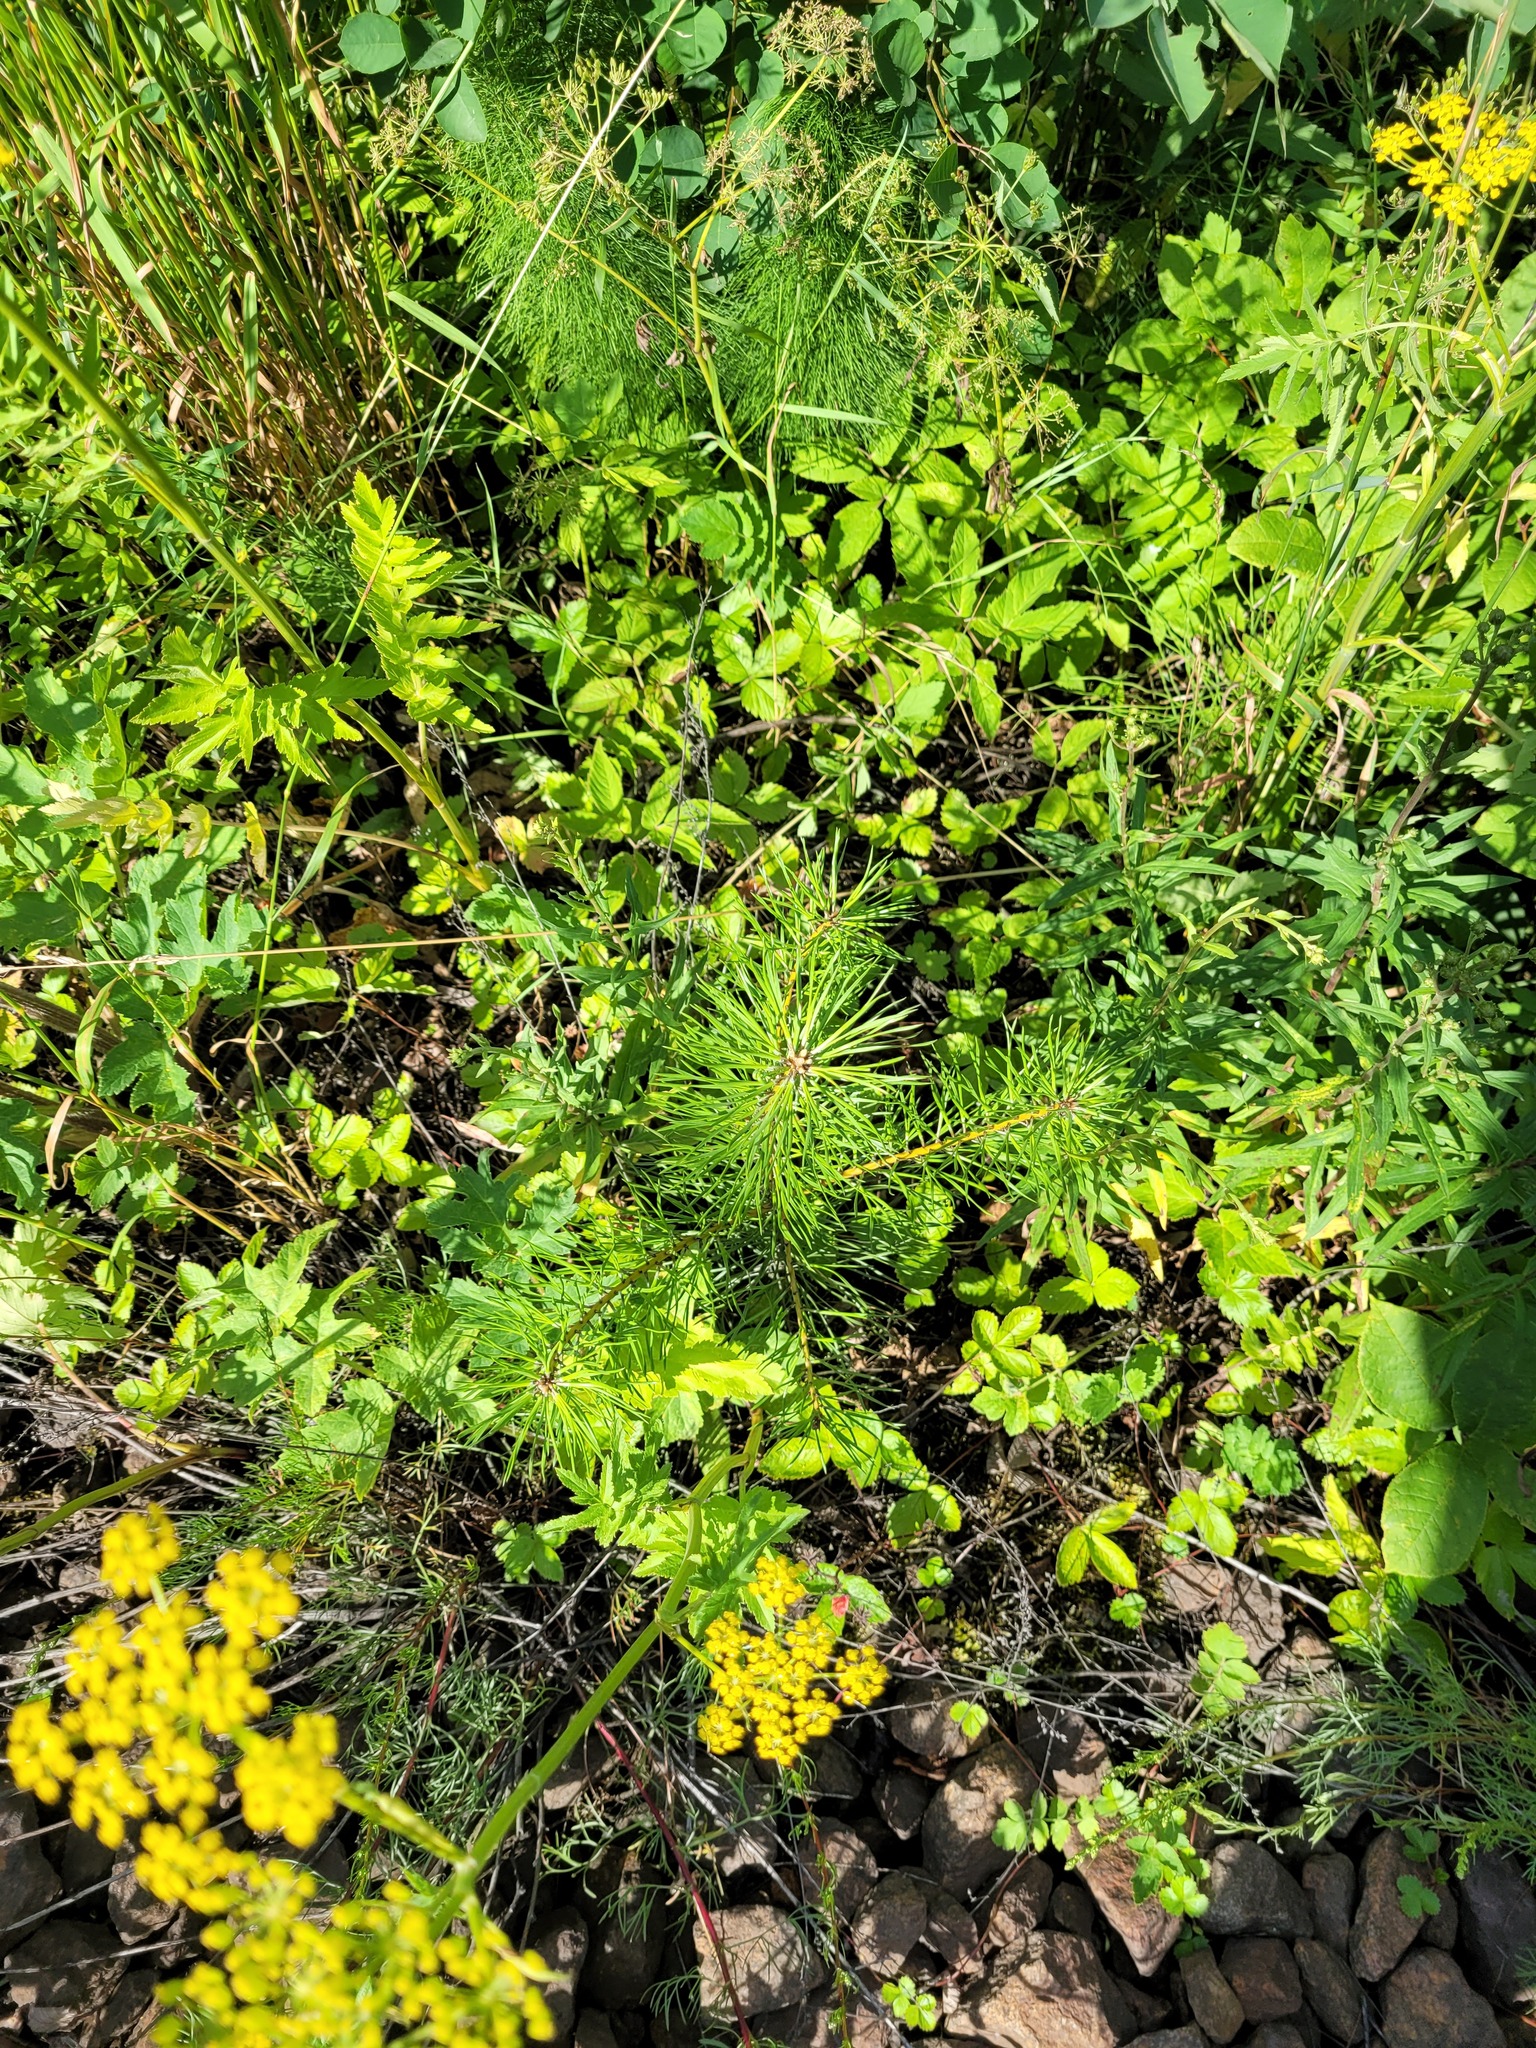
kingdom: Plantae
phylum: Tracheophyta
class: Pinopsida
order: Pinales
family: Pinaceae
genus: Pinus
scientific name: Pinus sylvestris
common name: Scots pine
